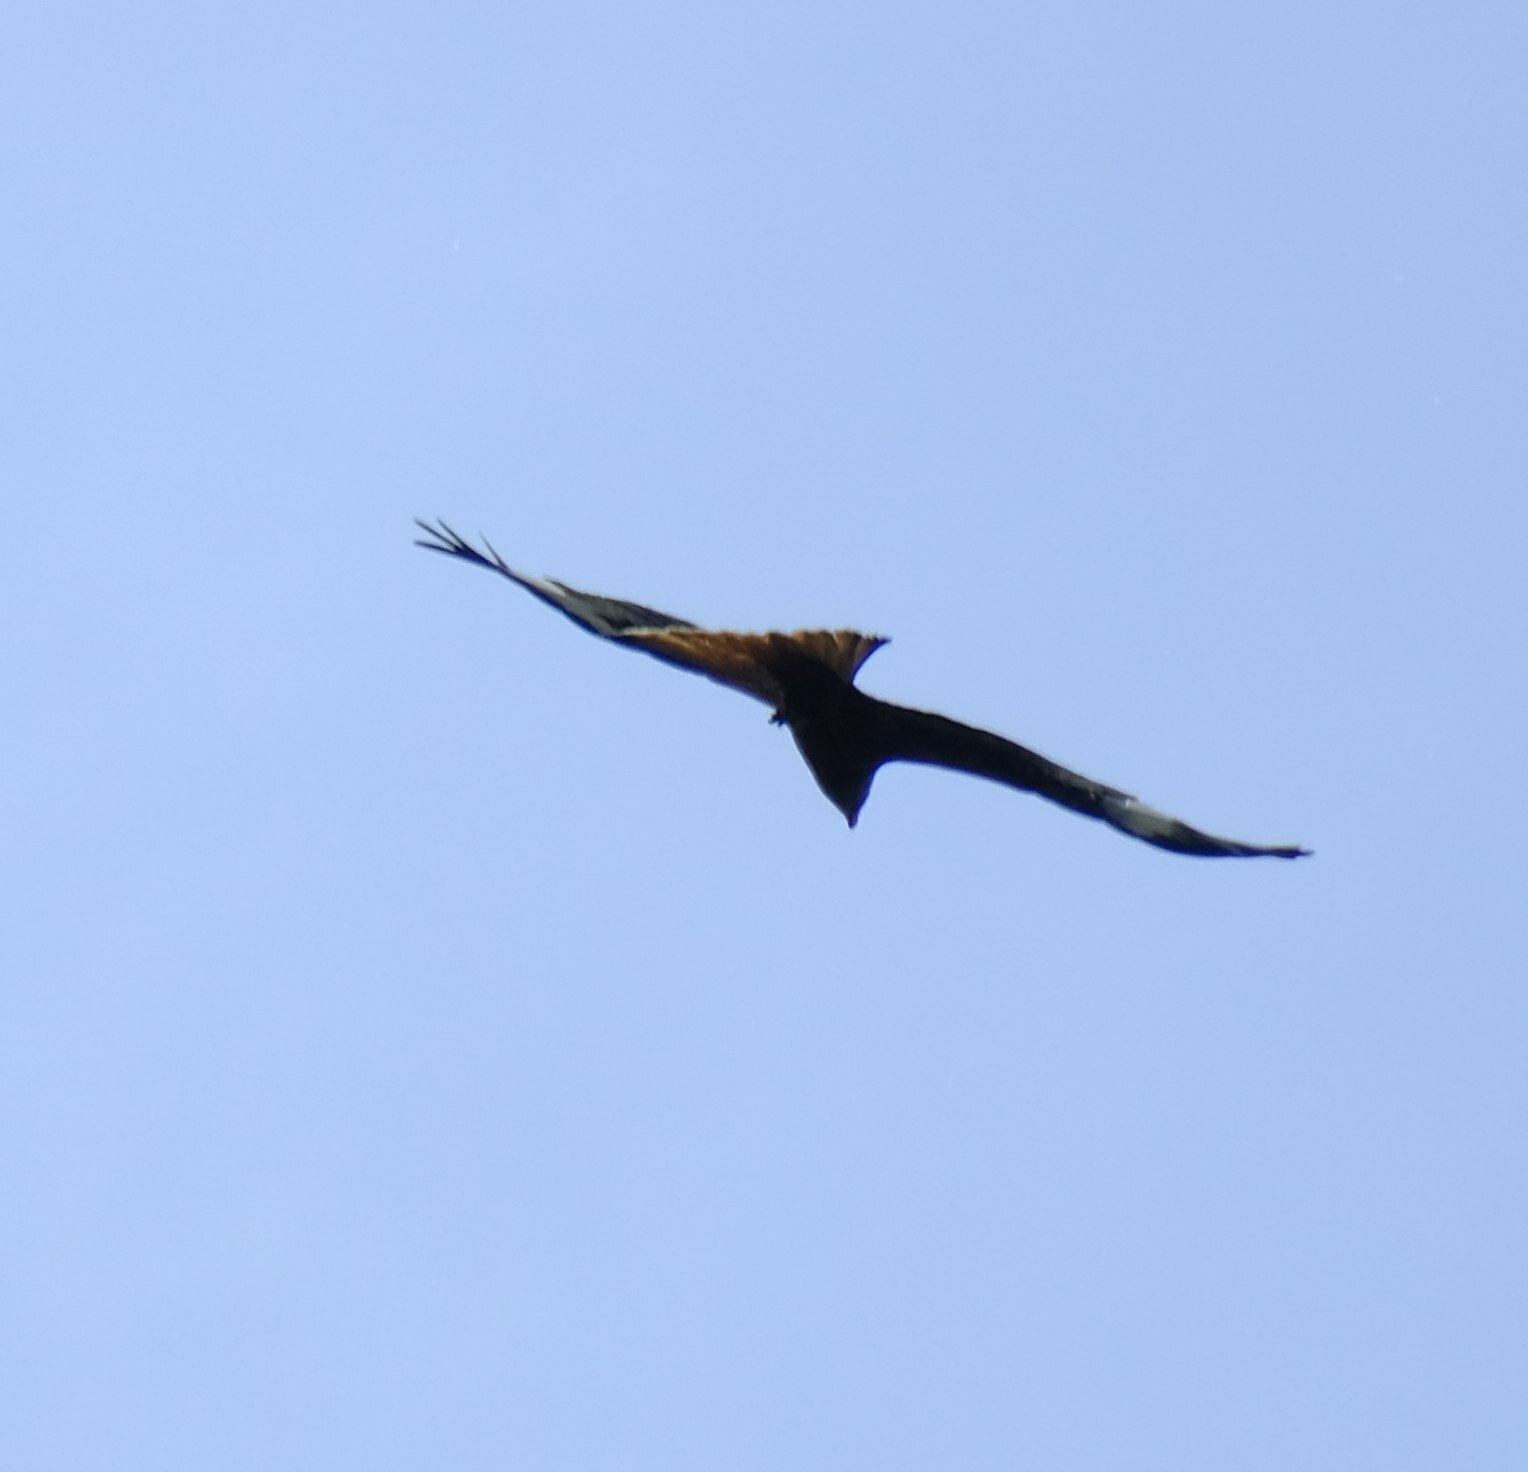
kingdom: Animalia
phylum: Chordata
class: Aves
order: Accipitriformes
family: Accipitridae
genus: Milvus
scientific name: Milvus milvus
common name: Red kite
